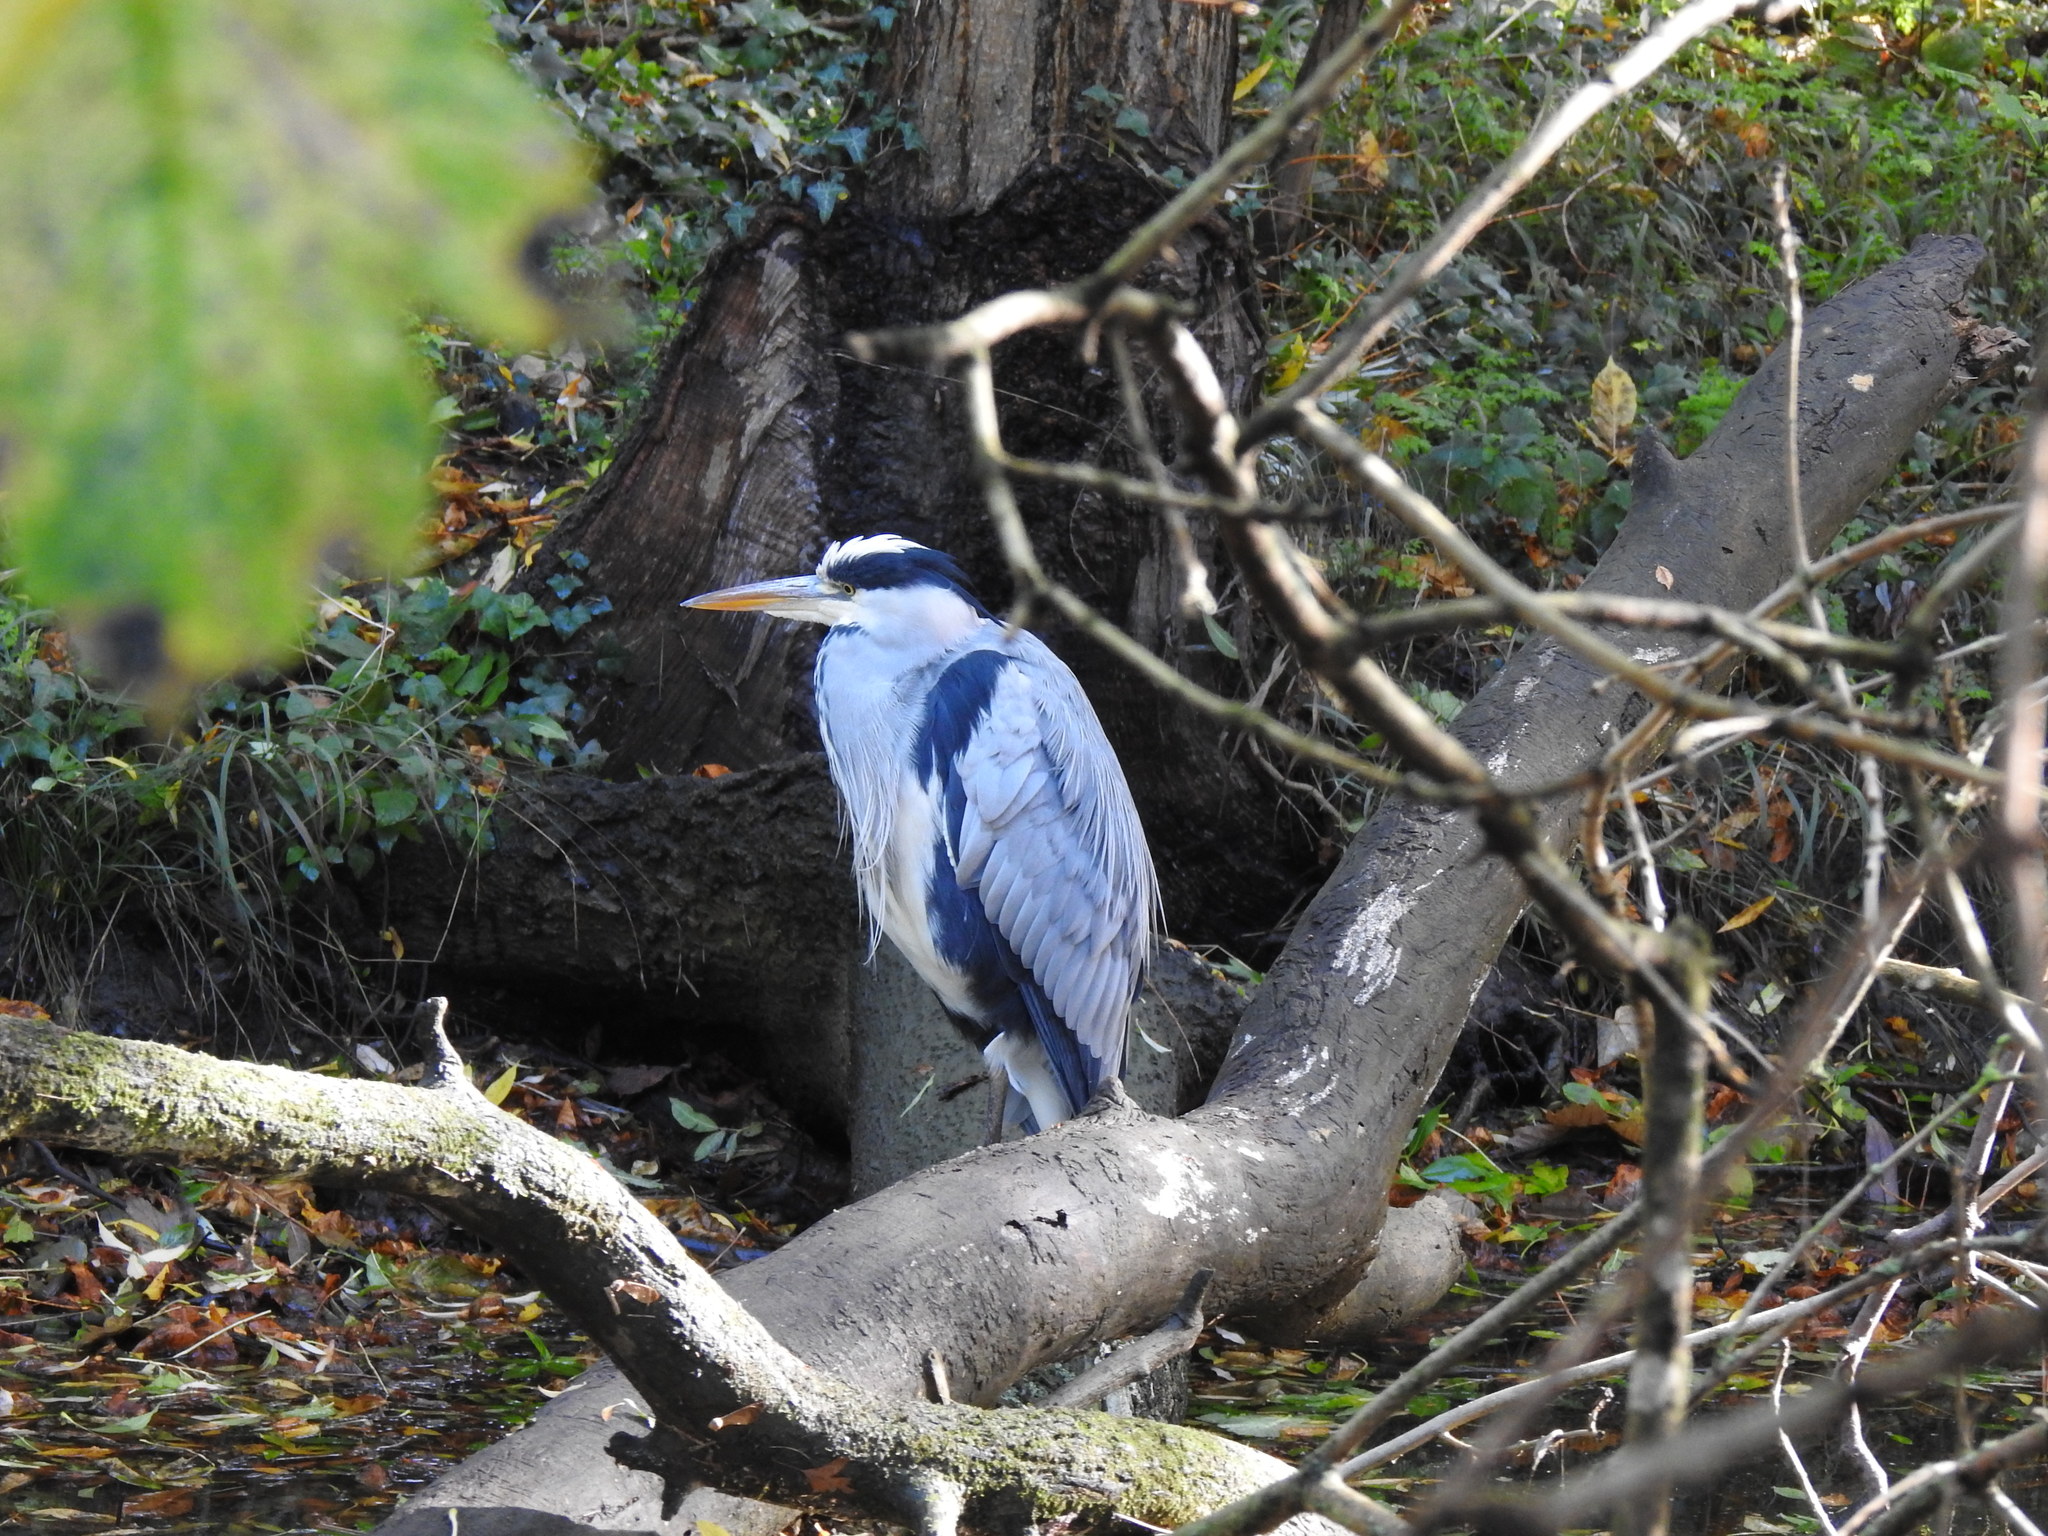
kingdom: Animalia
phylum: Chordata
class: Aves
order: Pelecaniformes
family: Ardeidae
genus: Ardea
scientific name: Ardea cinerea
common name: Grey heron
